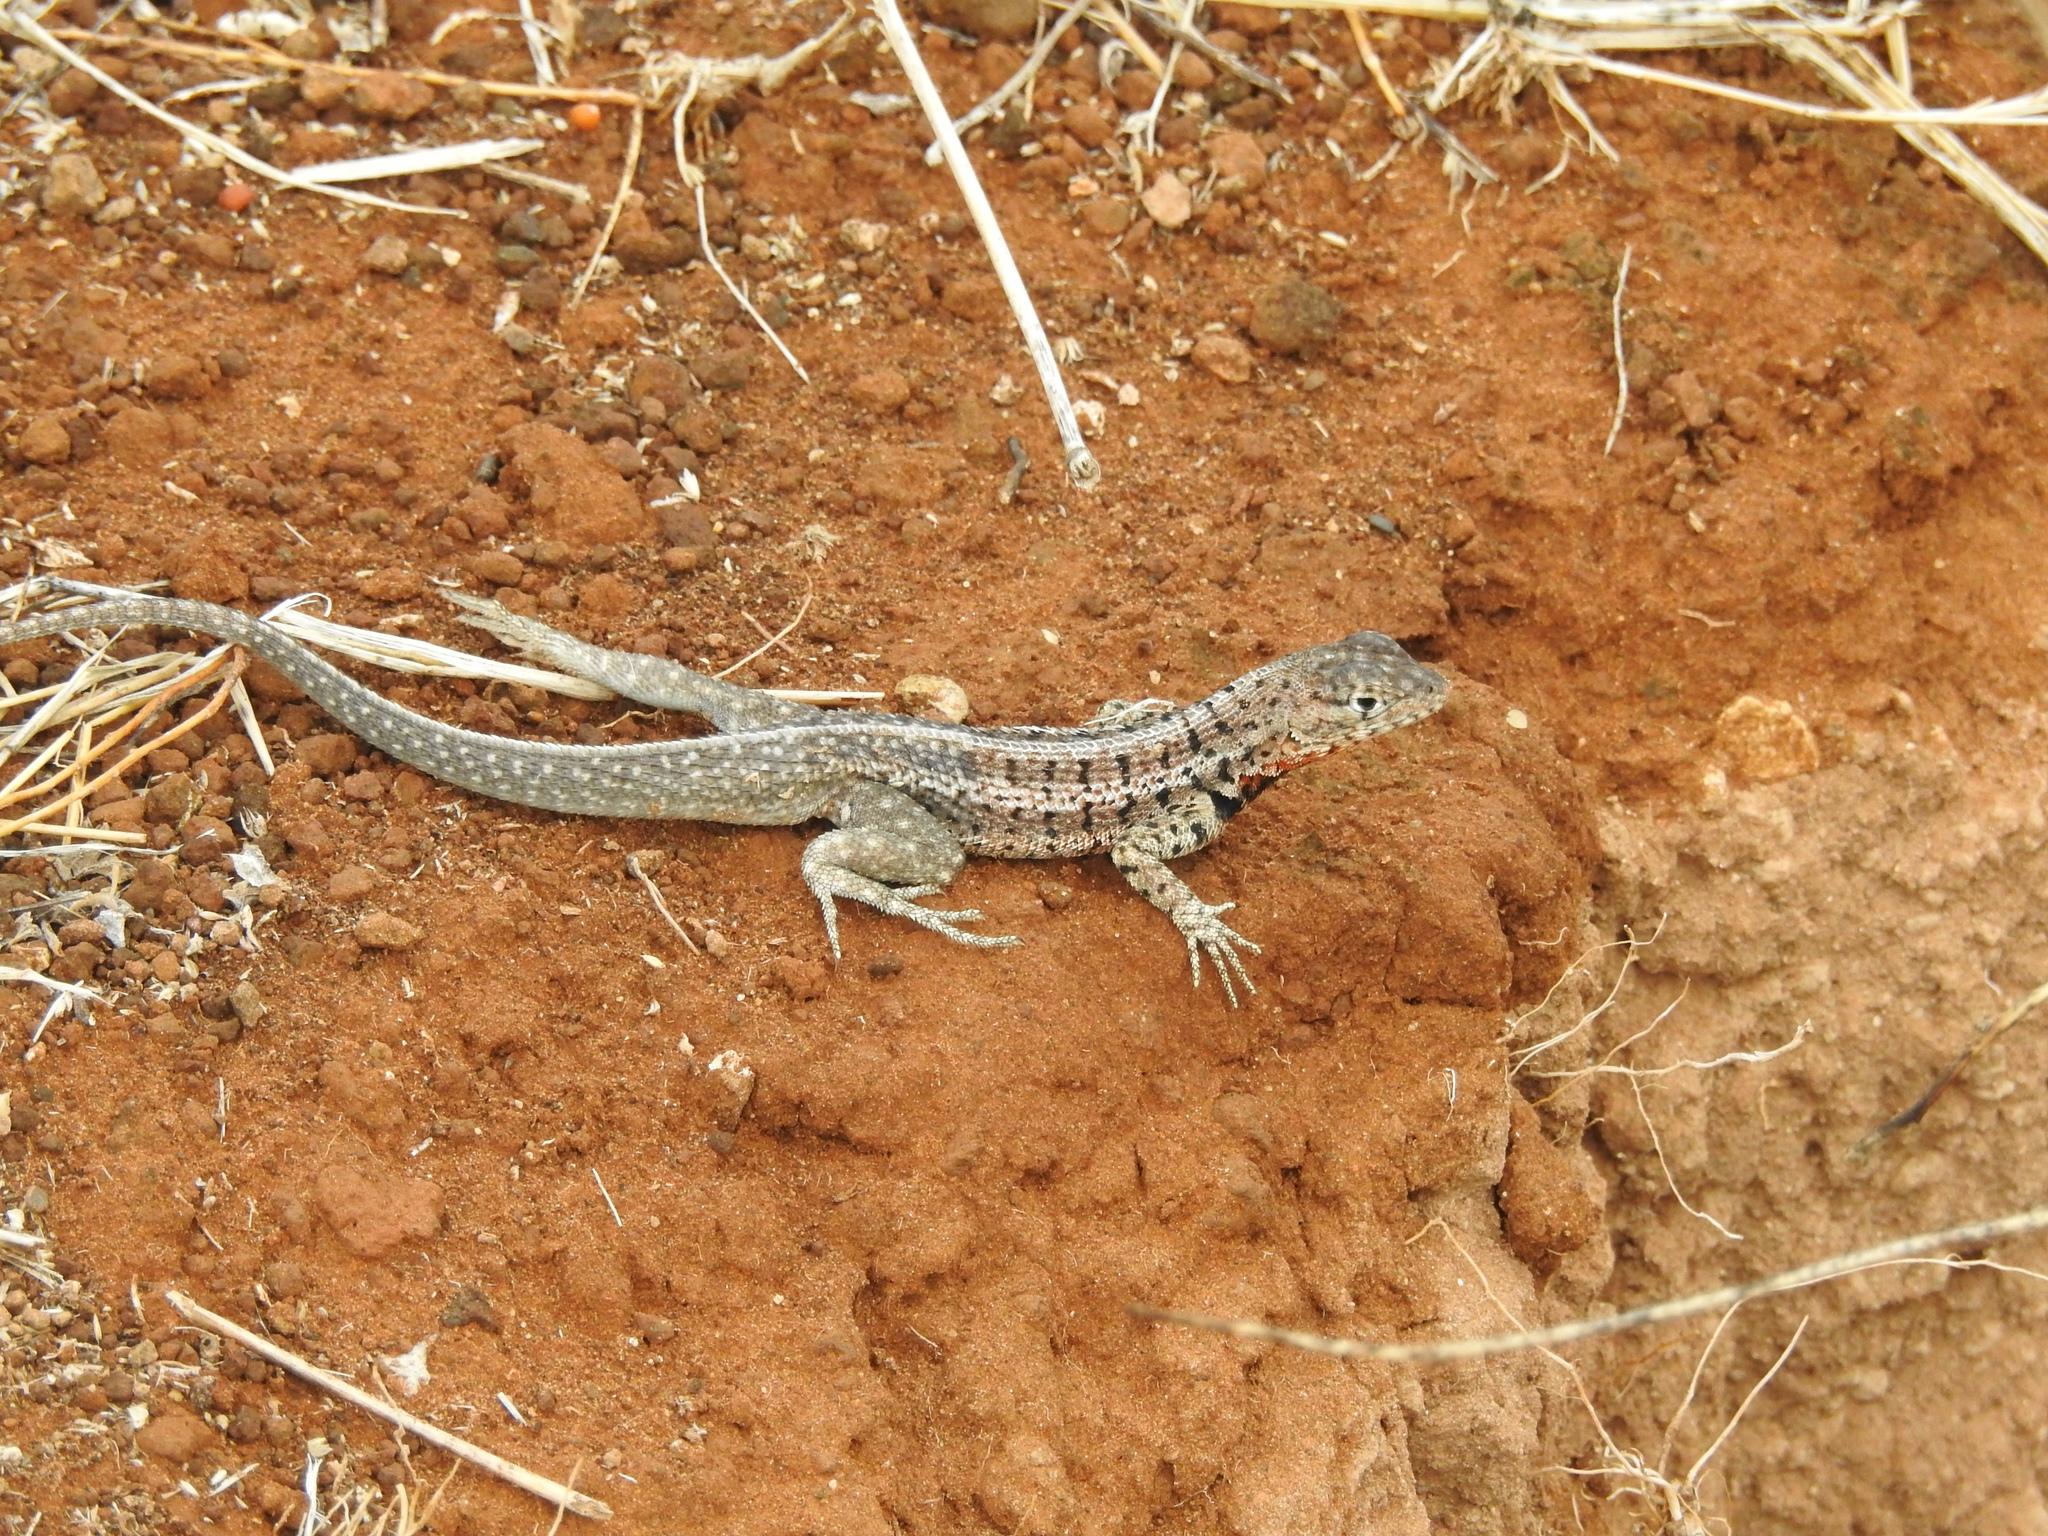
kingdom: Animalia
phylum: Chordata
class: Squamata
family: Tropiduridae
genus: Microlophus
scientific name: Microlophus indefatigabilis
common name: Galapagos lava lizard
